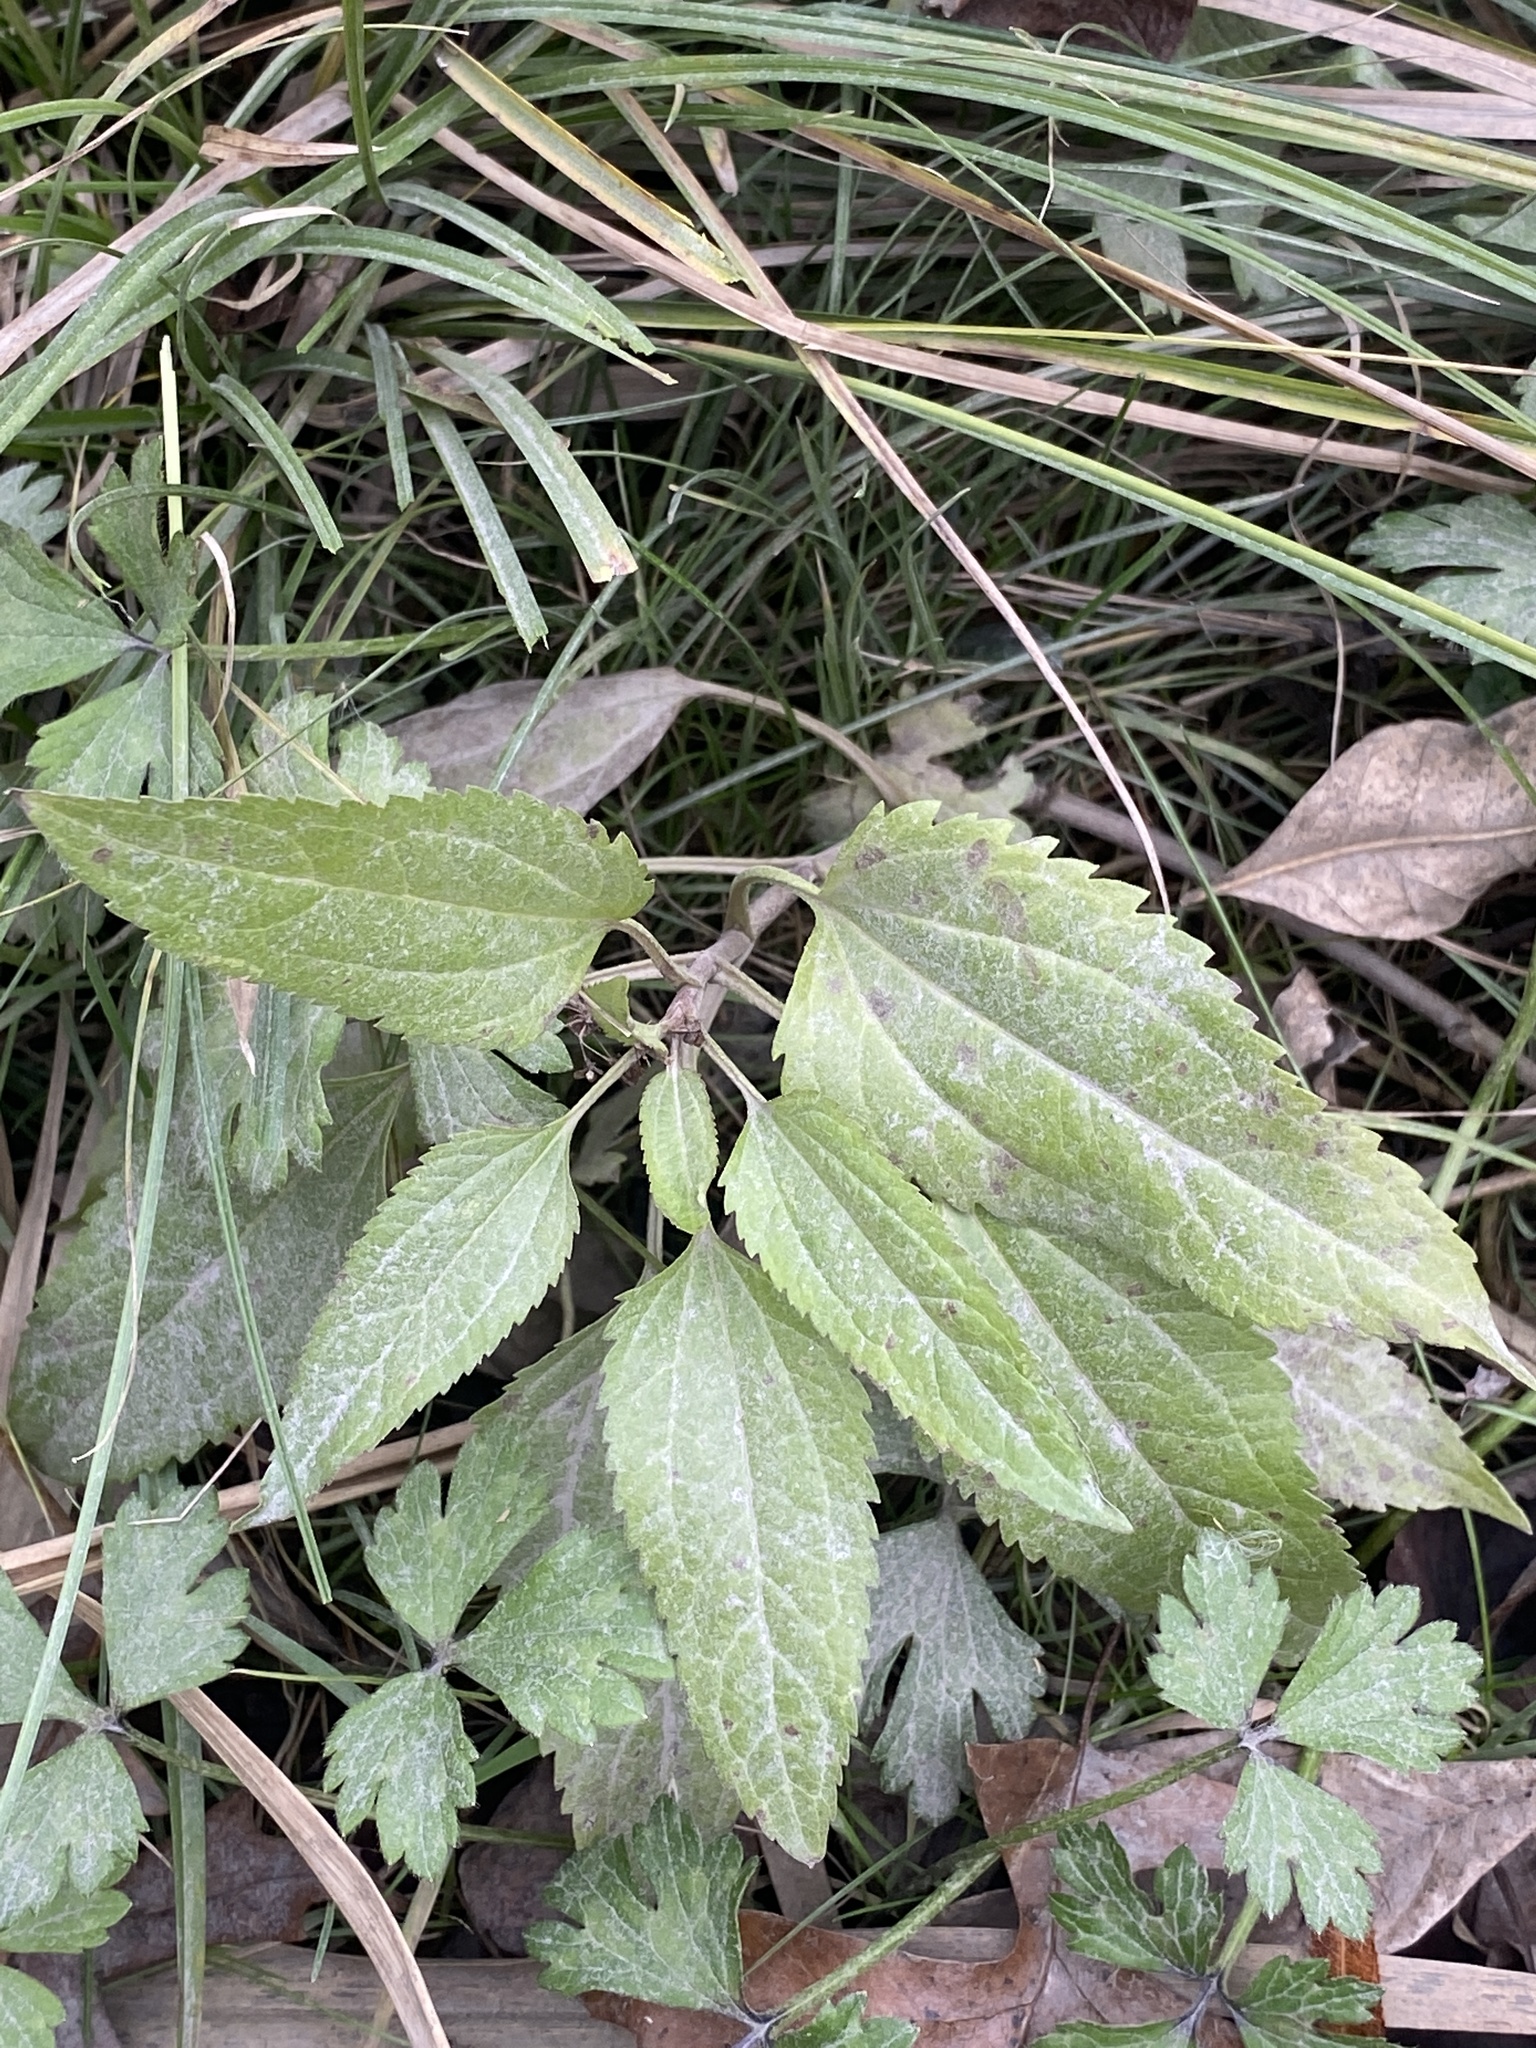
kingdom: Plantae
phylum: Tracheophyta
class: Magnoliopsida
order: Asterales
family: Asteraceae
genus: Eupatorium
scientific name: Eupatorium serotinum
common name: Late boneset
